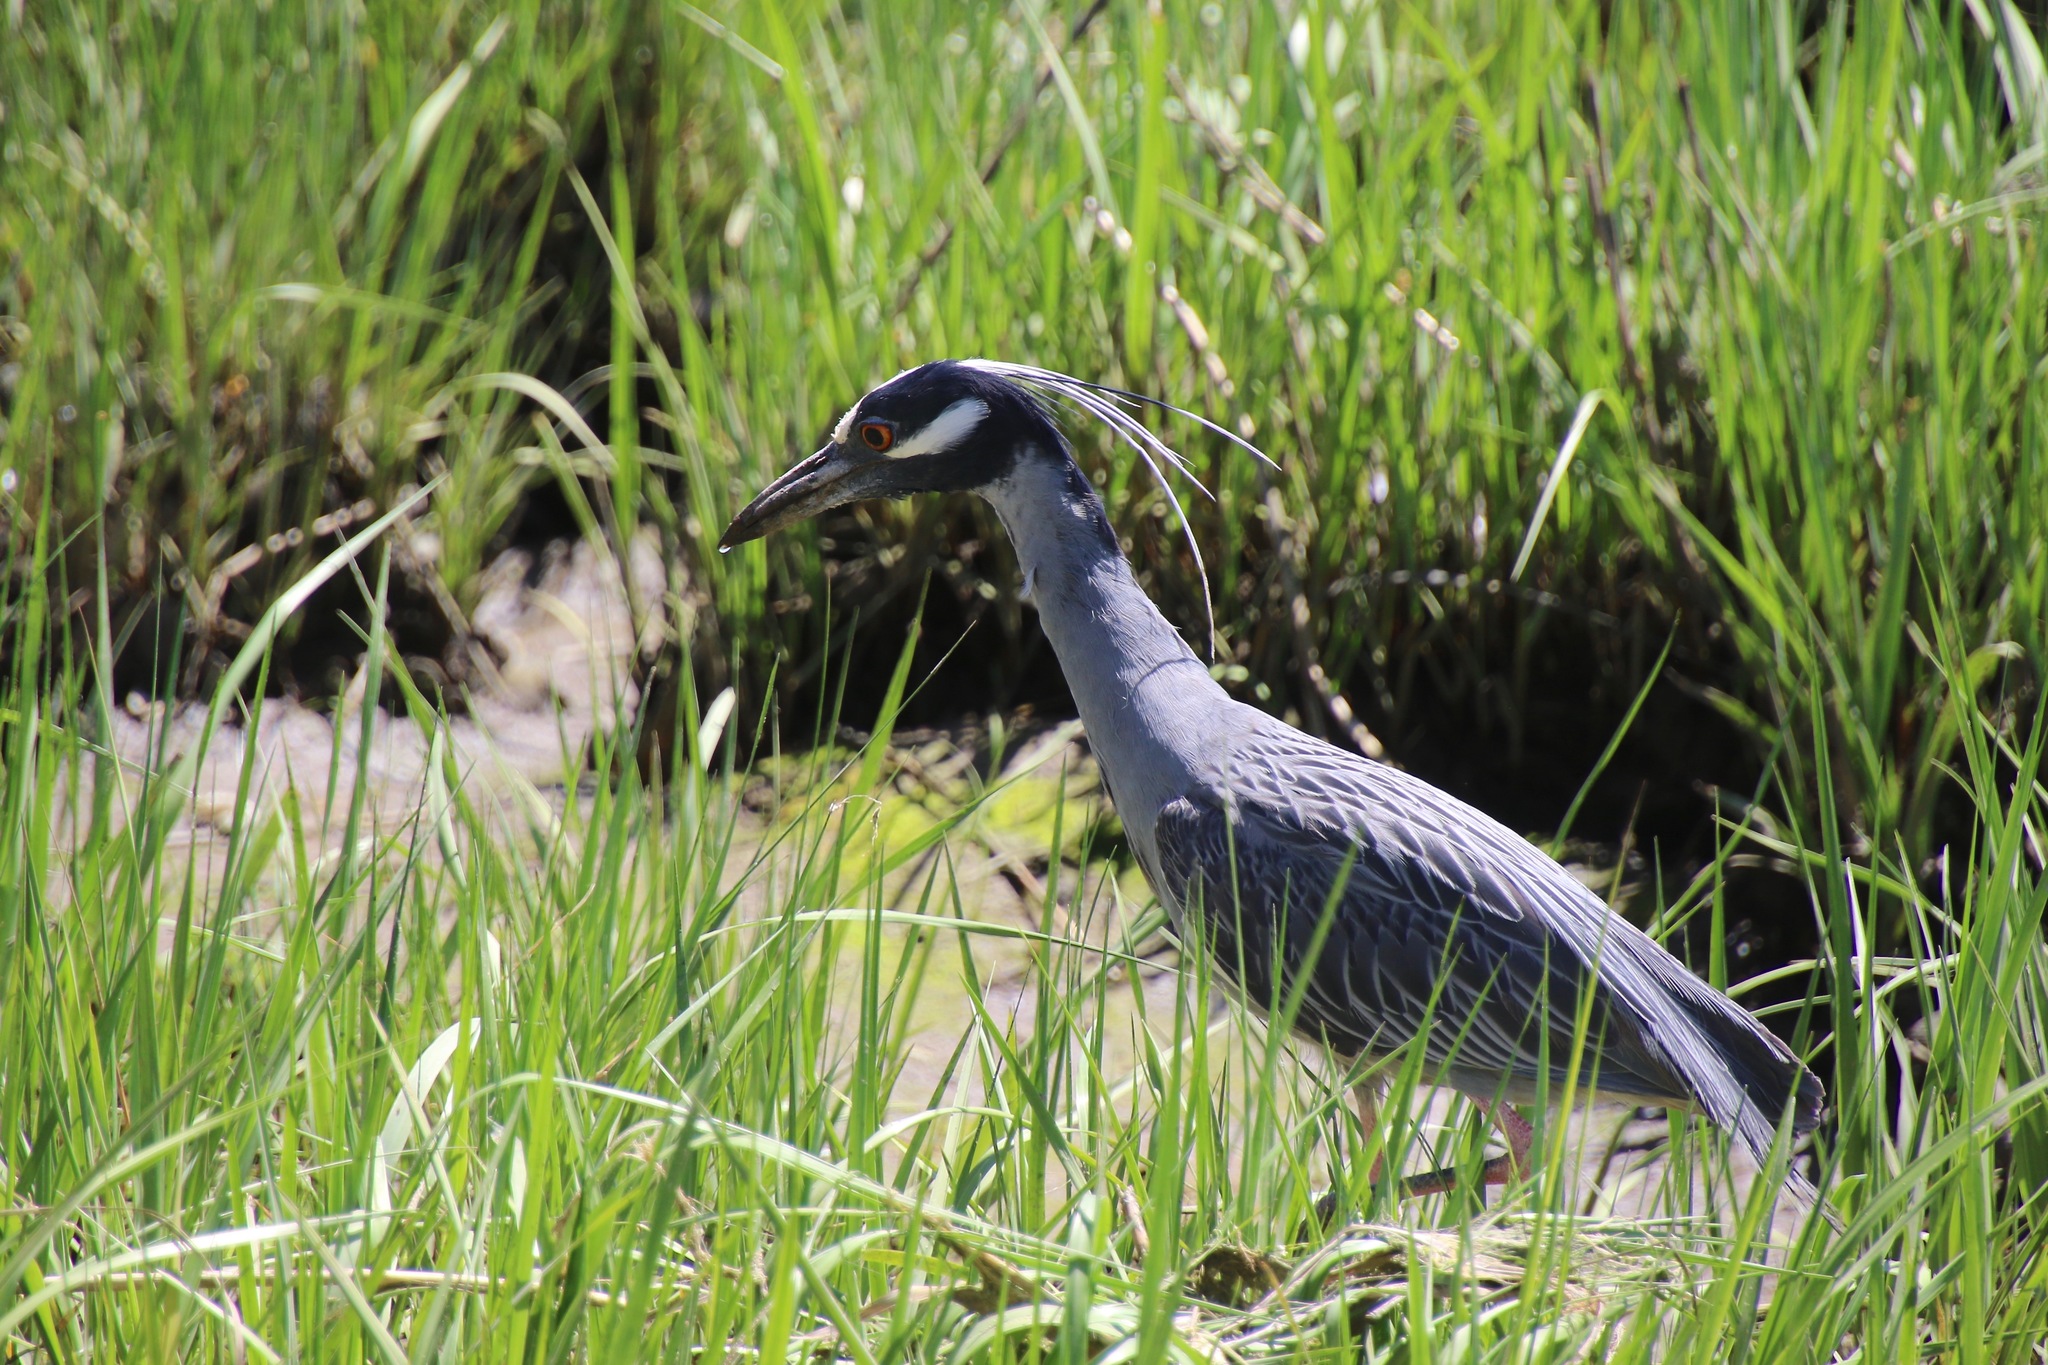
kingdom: Animalia
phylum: Chordata
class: Aves
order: Pelecaniformes
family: Ardeidae
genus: Nyctanassa
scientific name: Nyctanassa violacea
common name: Yellow-crowned night heron
